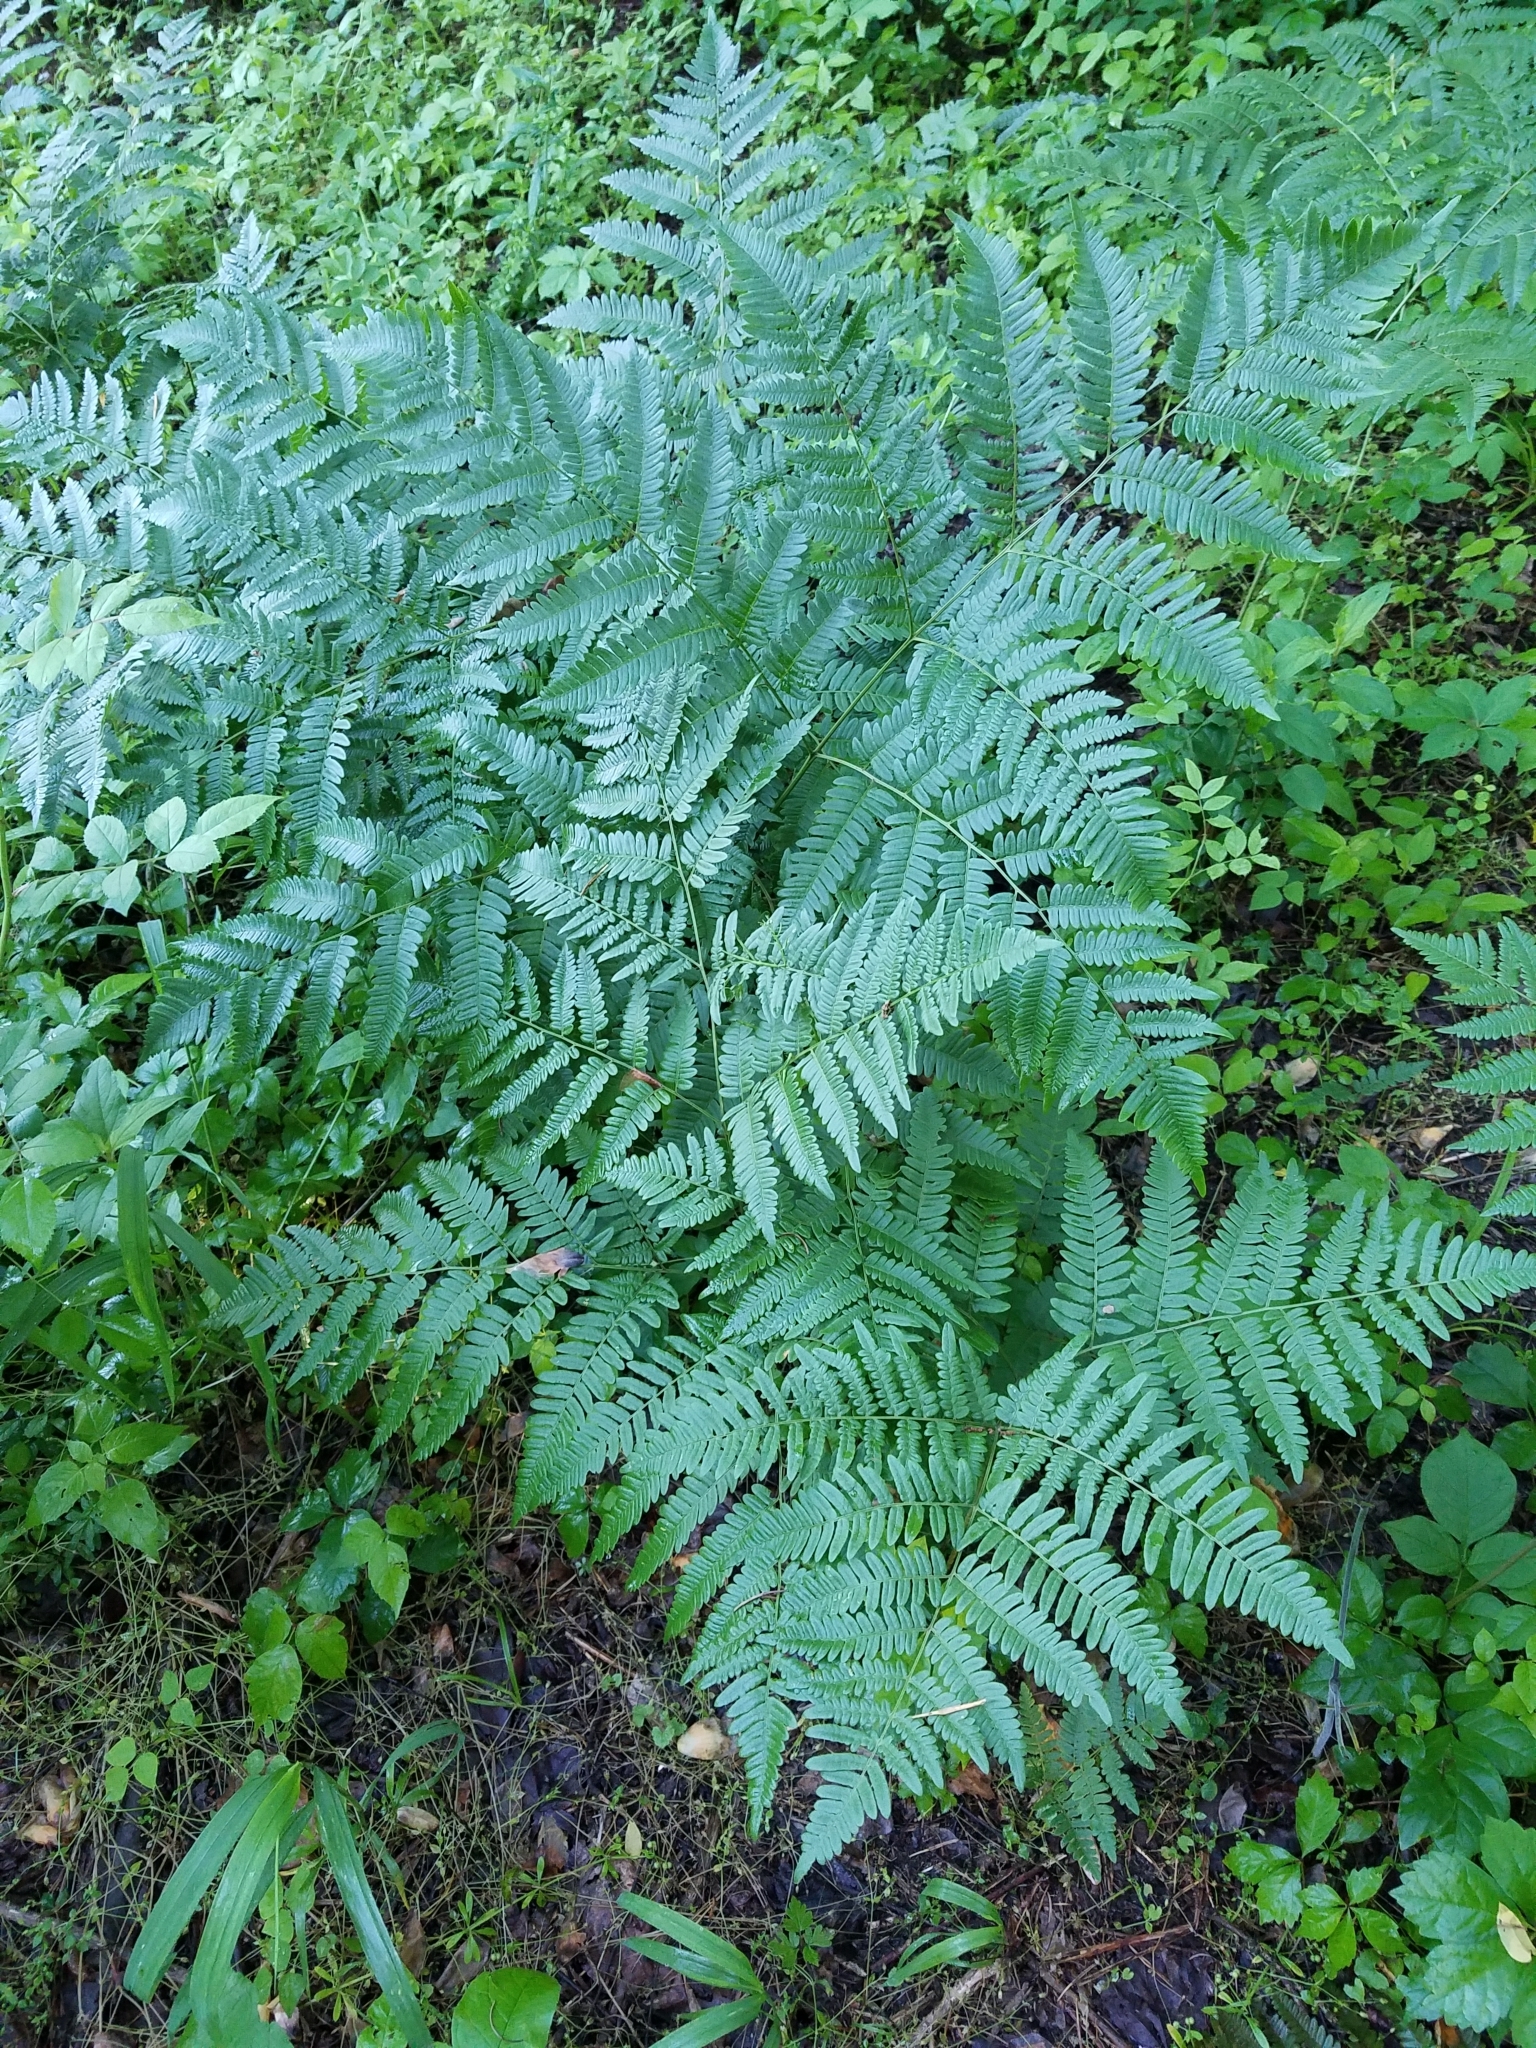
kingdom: Plantae
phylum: Tracheophyta
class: Polypodiopsida
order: Polypodiales
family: Dennstaedtiaceae
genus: Pteridium
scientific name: Pteridium aquilinum
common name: Bracken
